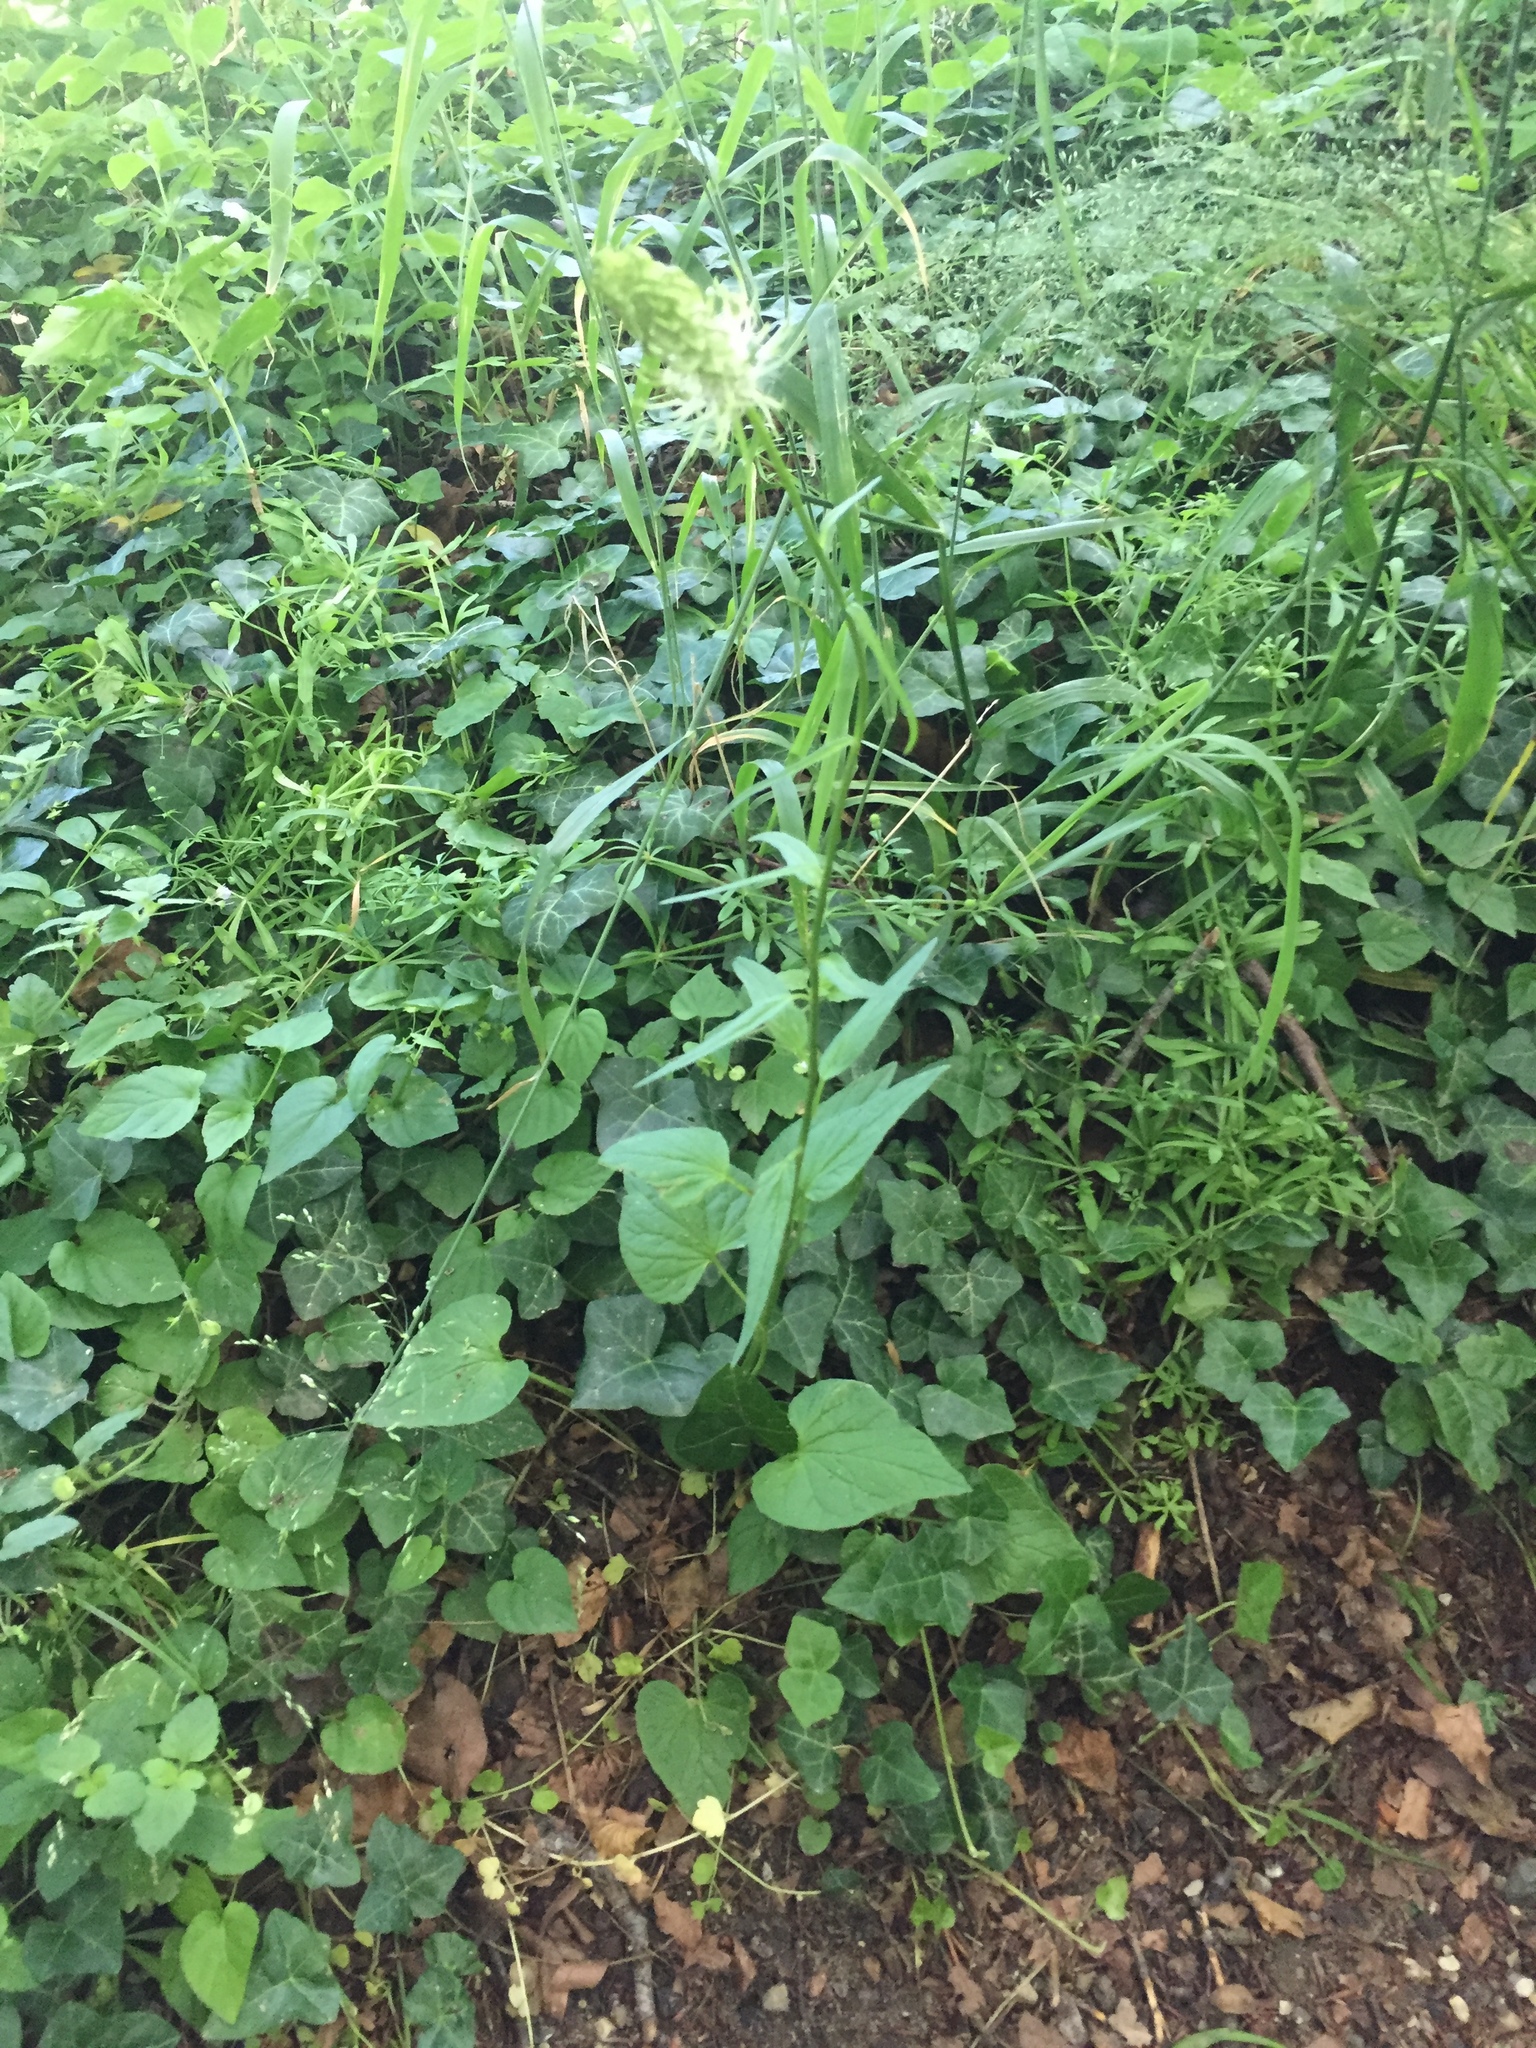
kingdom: Plantae
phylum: Tracheophyta
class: Magnoliopsida
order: Asterales
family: Campanulaceae
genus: Phyteuma
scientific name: Phyteuma spicatum
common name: Spiked rampion
